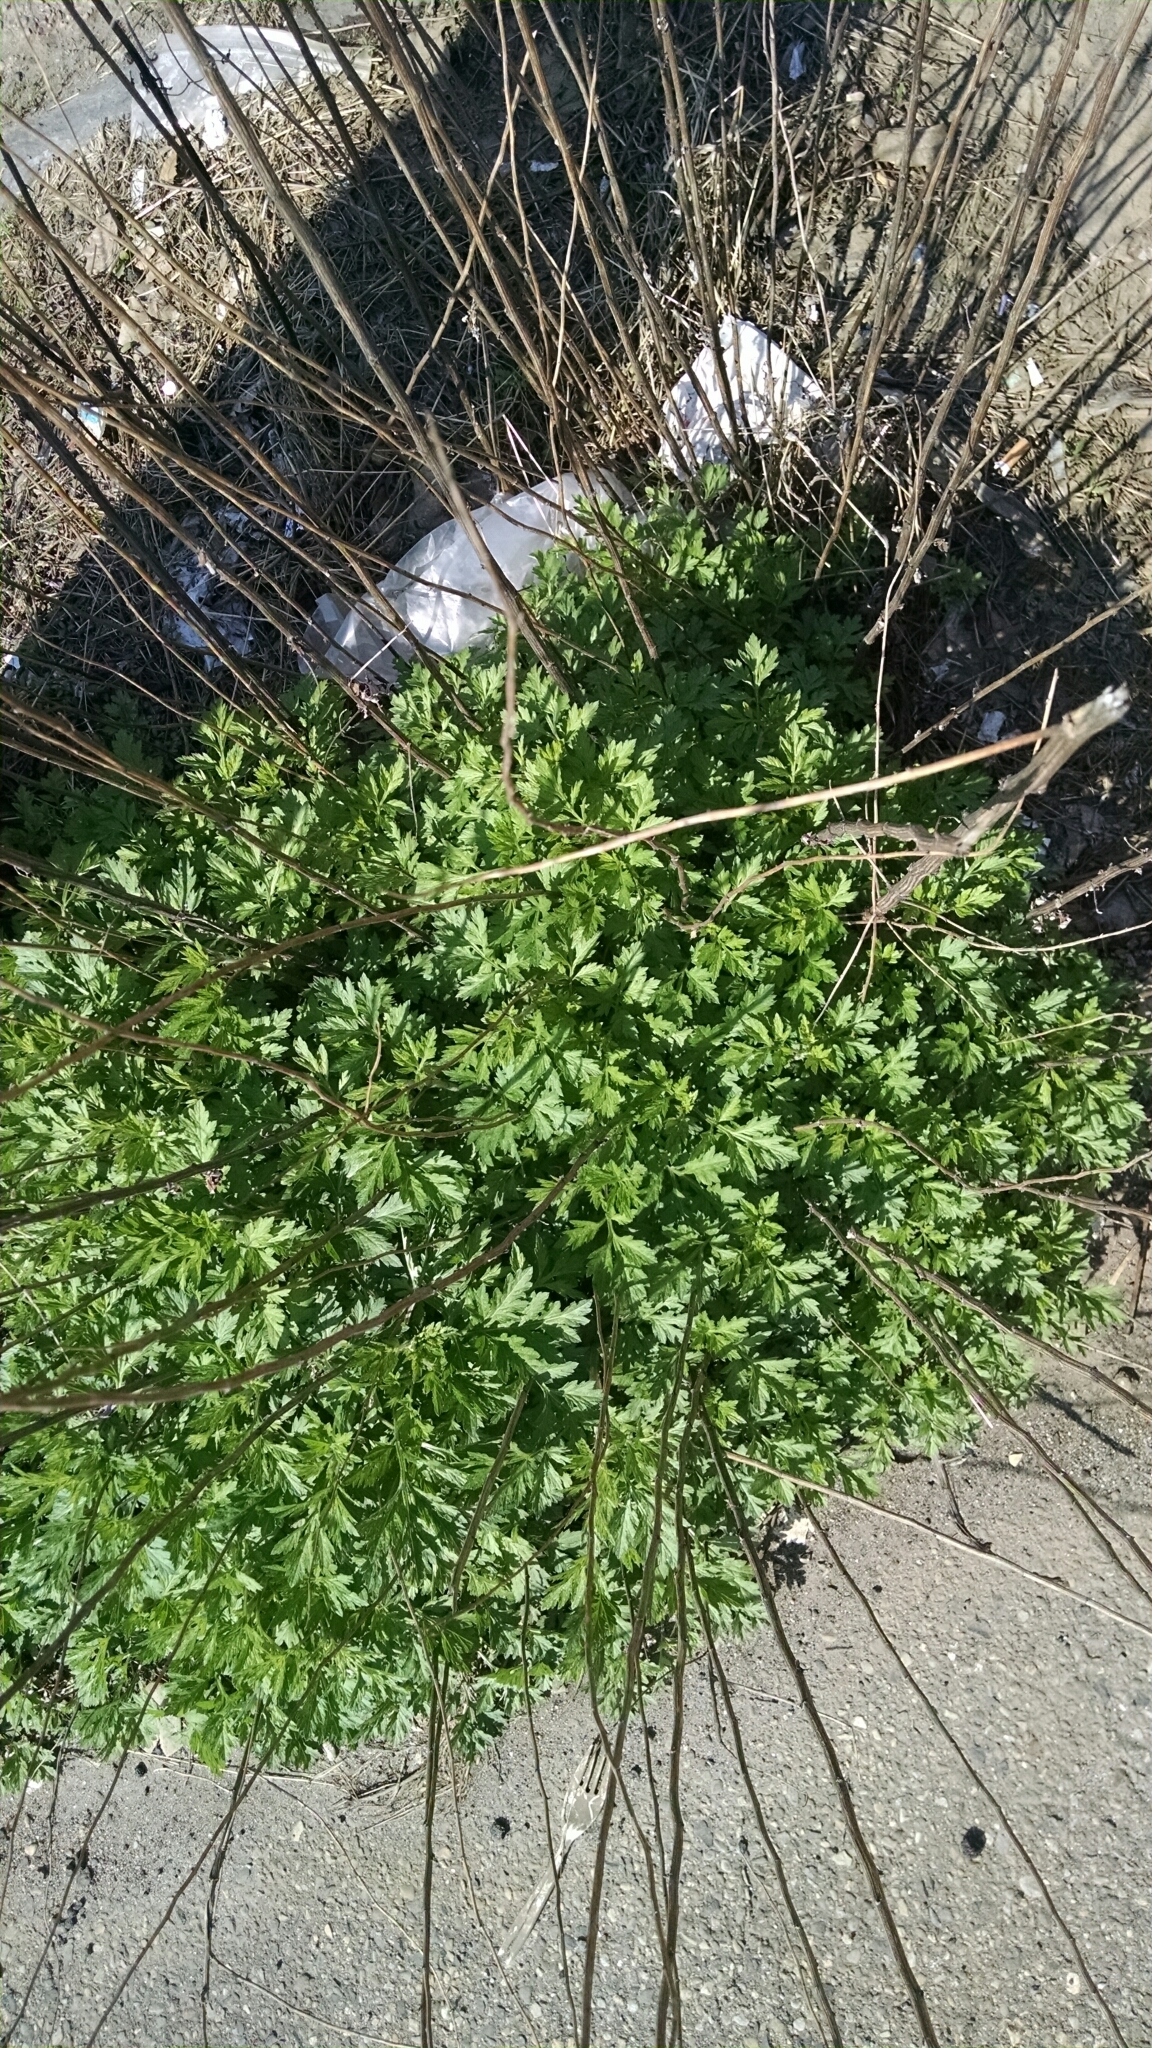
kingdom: Plantae
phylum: Tracheophyta
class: Magnoliopsida
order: Asterales
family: Asteraceae
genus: Artemisia
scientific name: Artemisia vulgaris
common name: Mugwort
